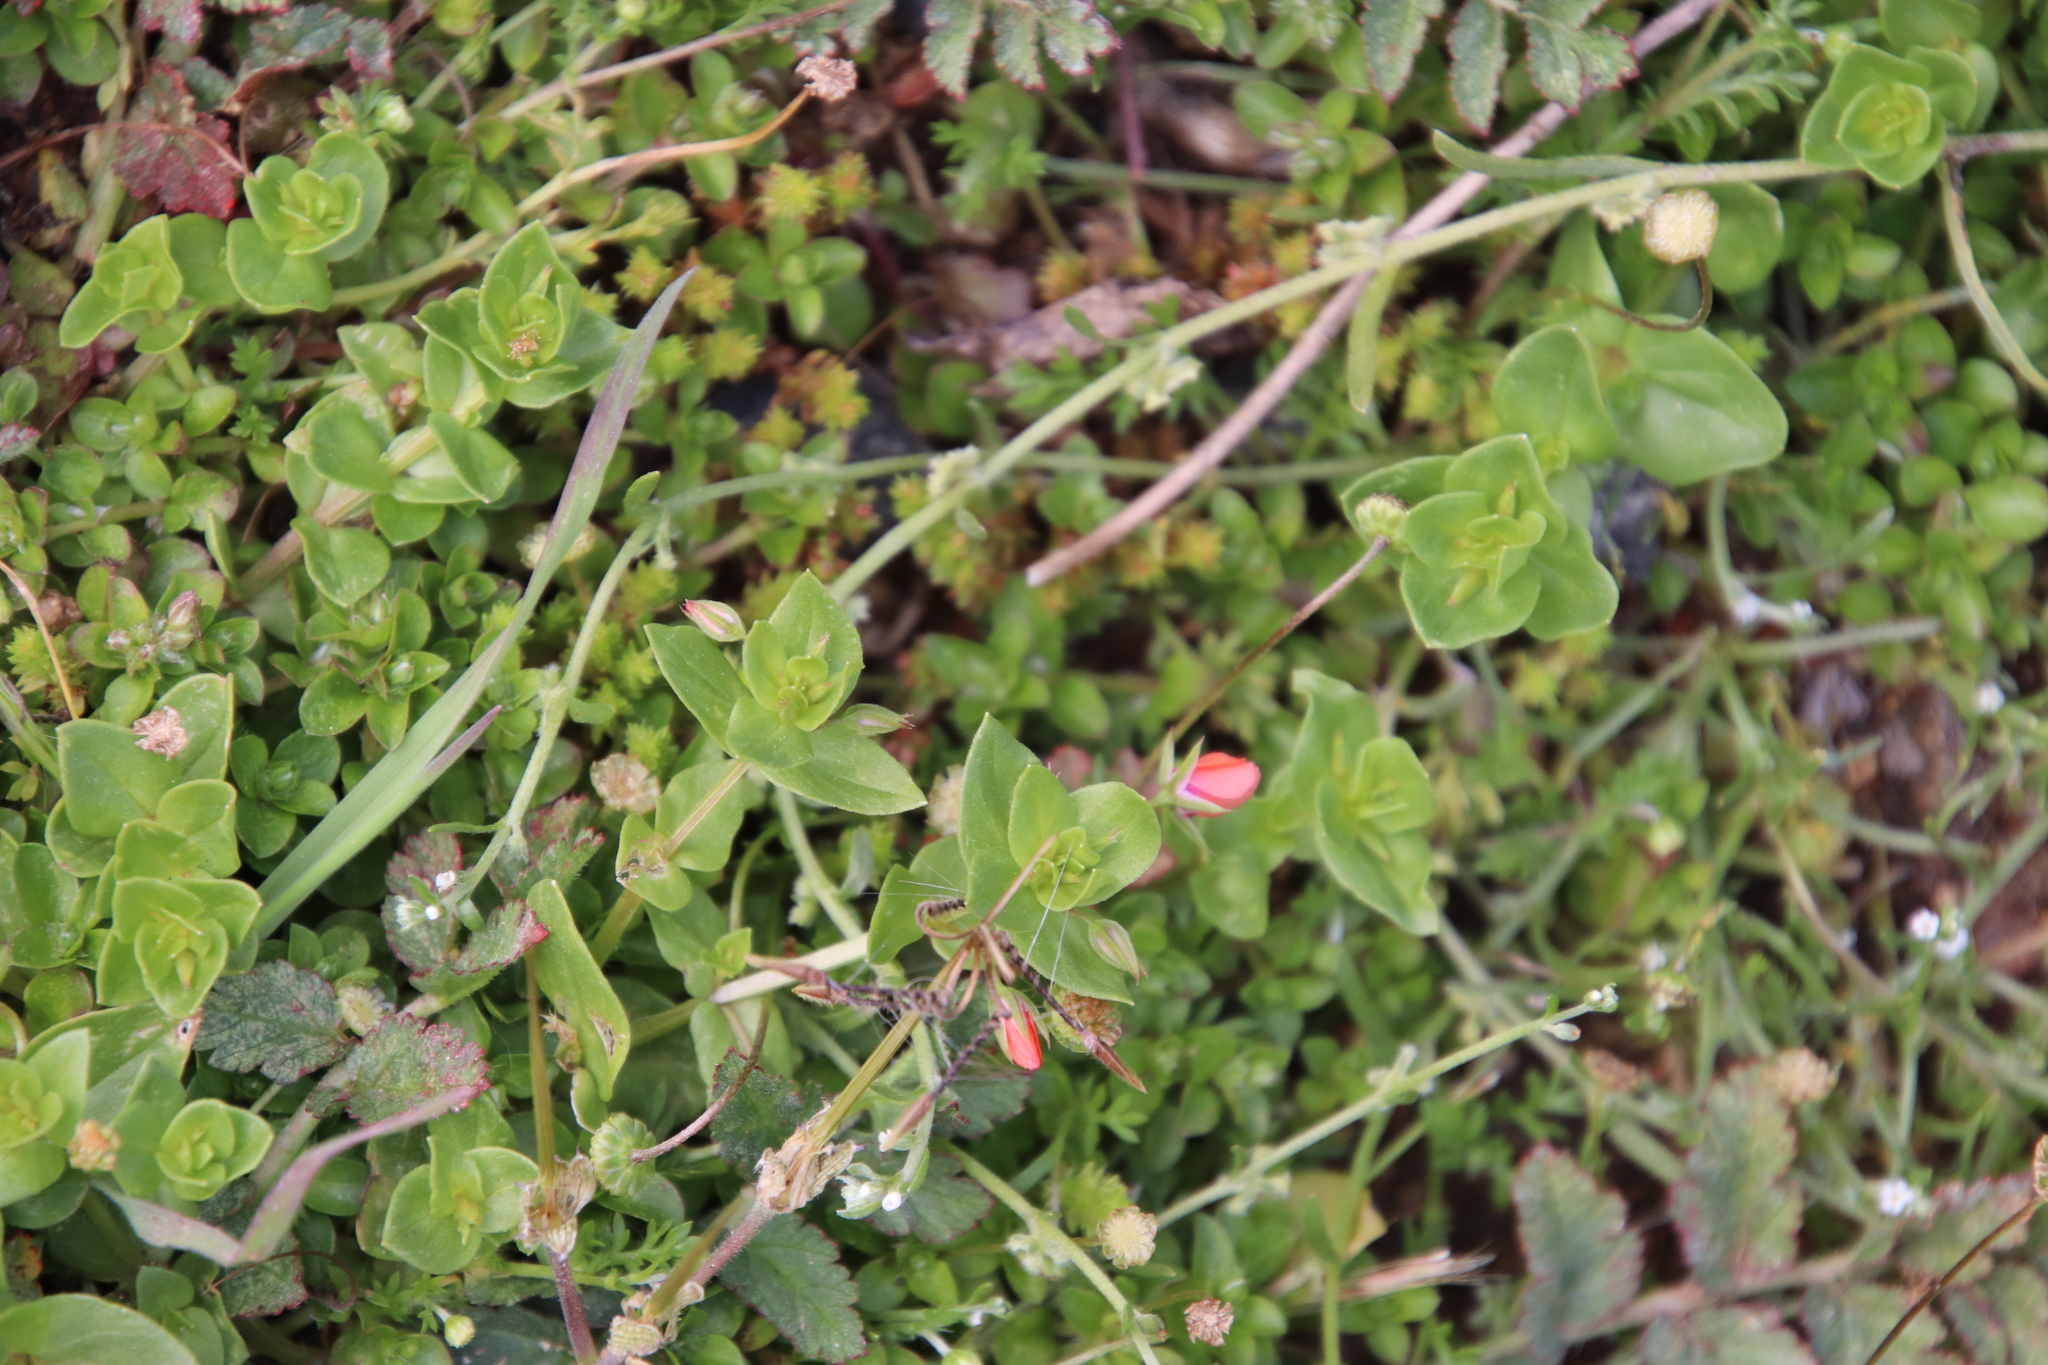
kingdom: Plantae
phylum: Tracheophyta
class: Magnoliopsida
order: Ericales
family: Primulaceae
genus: Lysimachia
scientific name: Lysimachia arvensis
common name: Scarlet pimpernel
